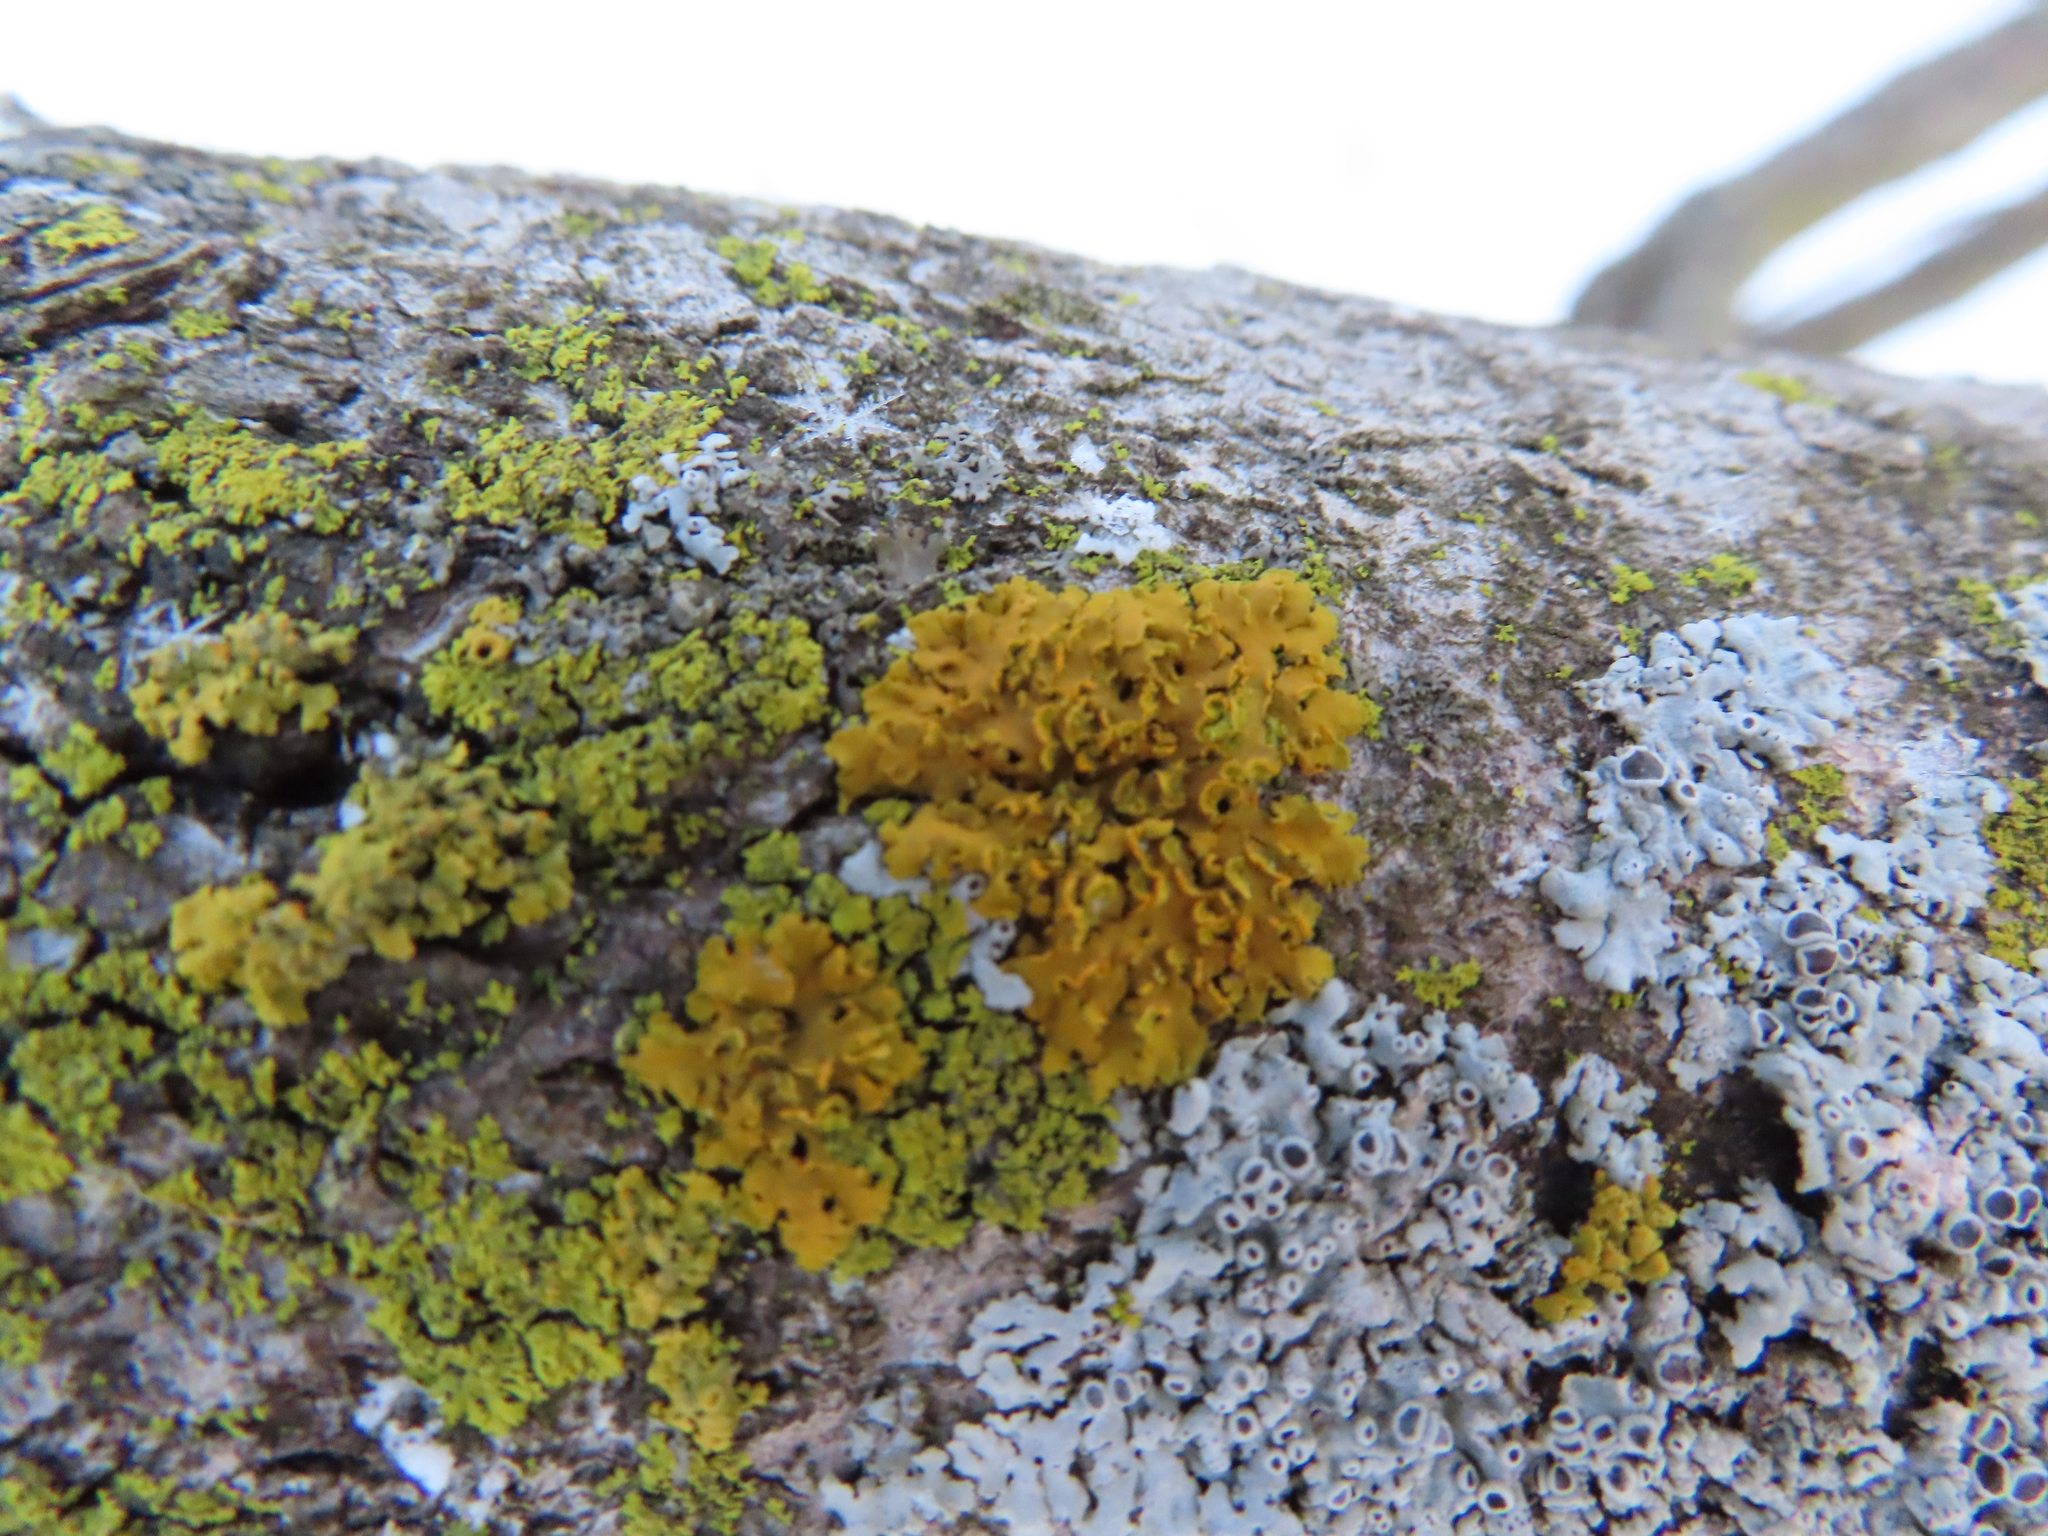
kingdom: Fungi
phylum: Ascomycota
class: Lecanoromycetes
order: Teloschistales
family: Teloschistaceae
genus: Oxneria
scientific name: Oxneria fallax
